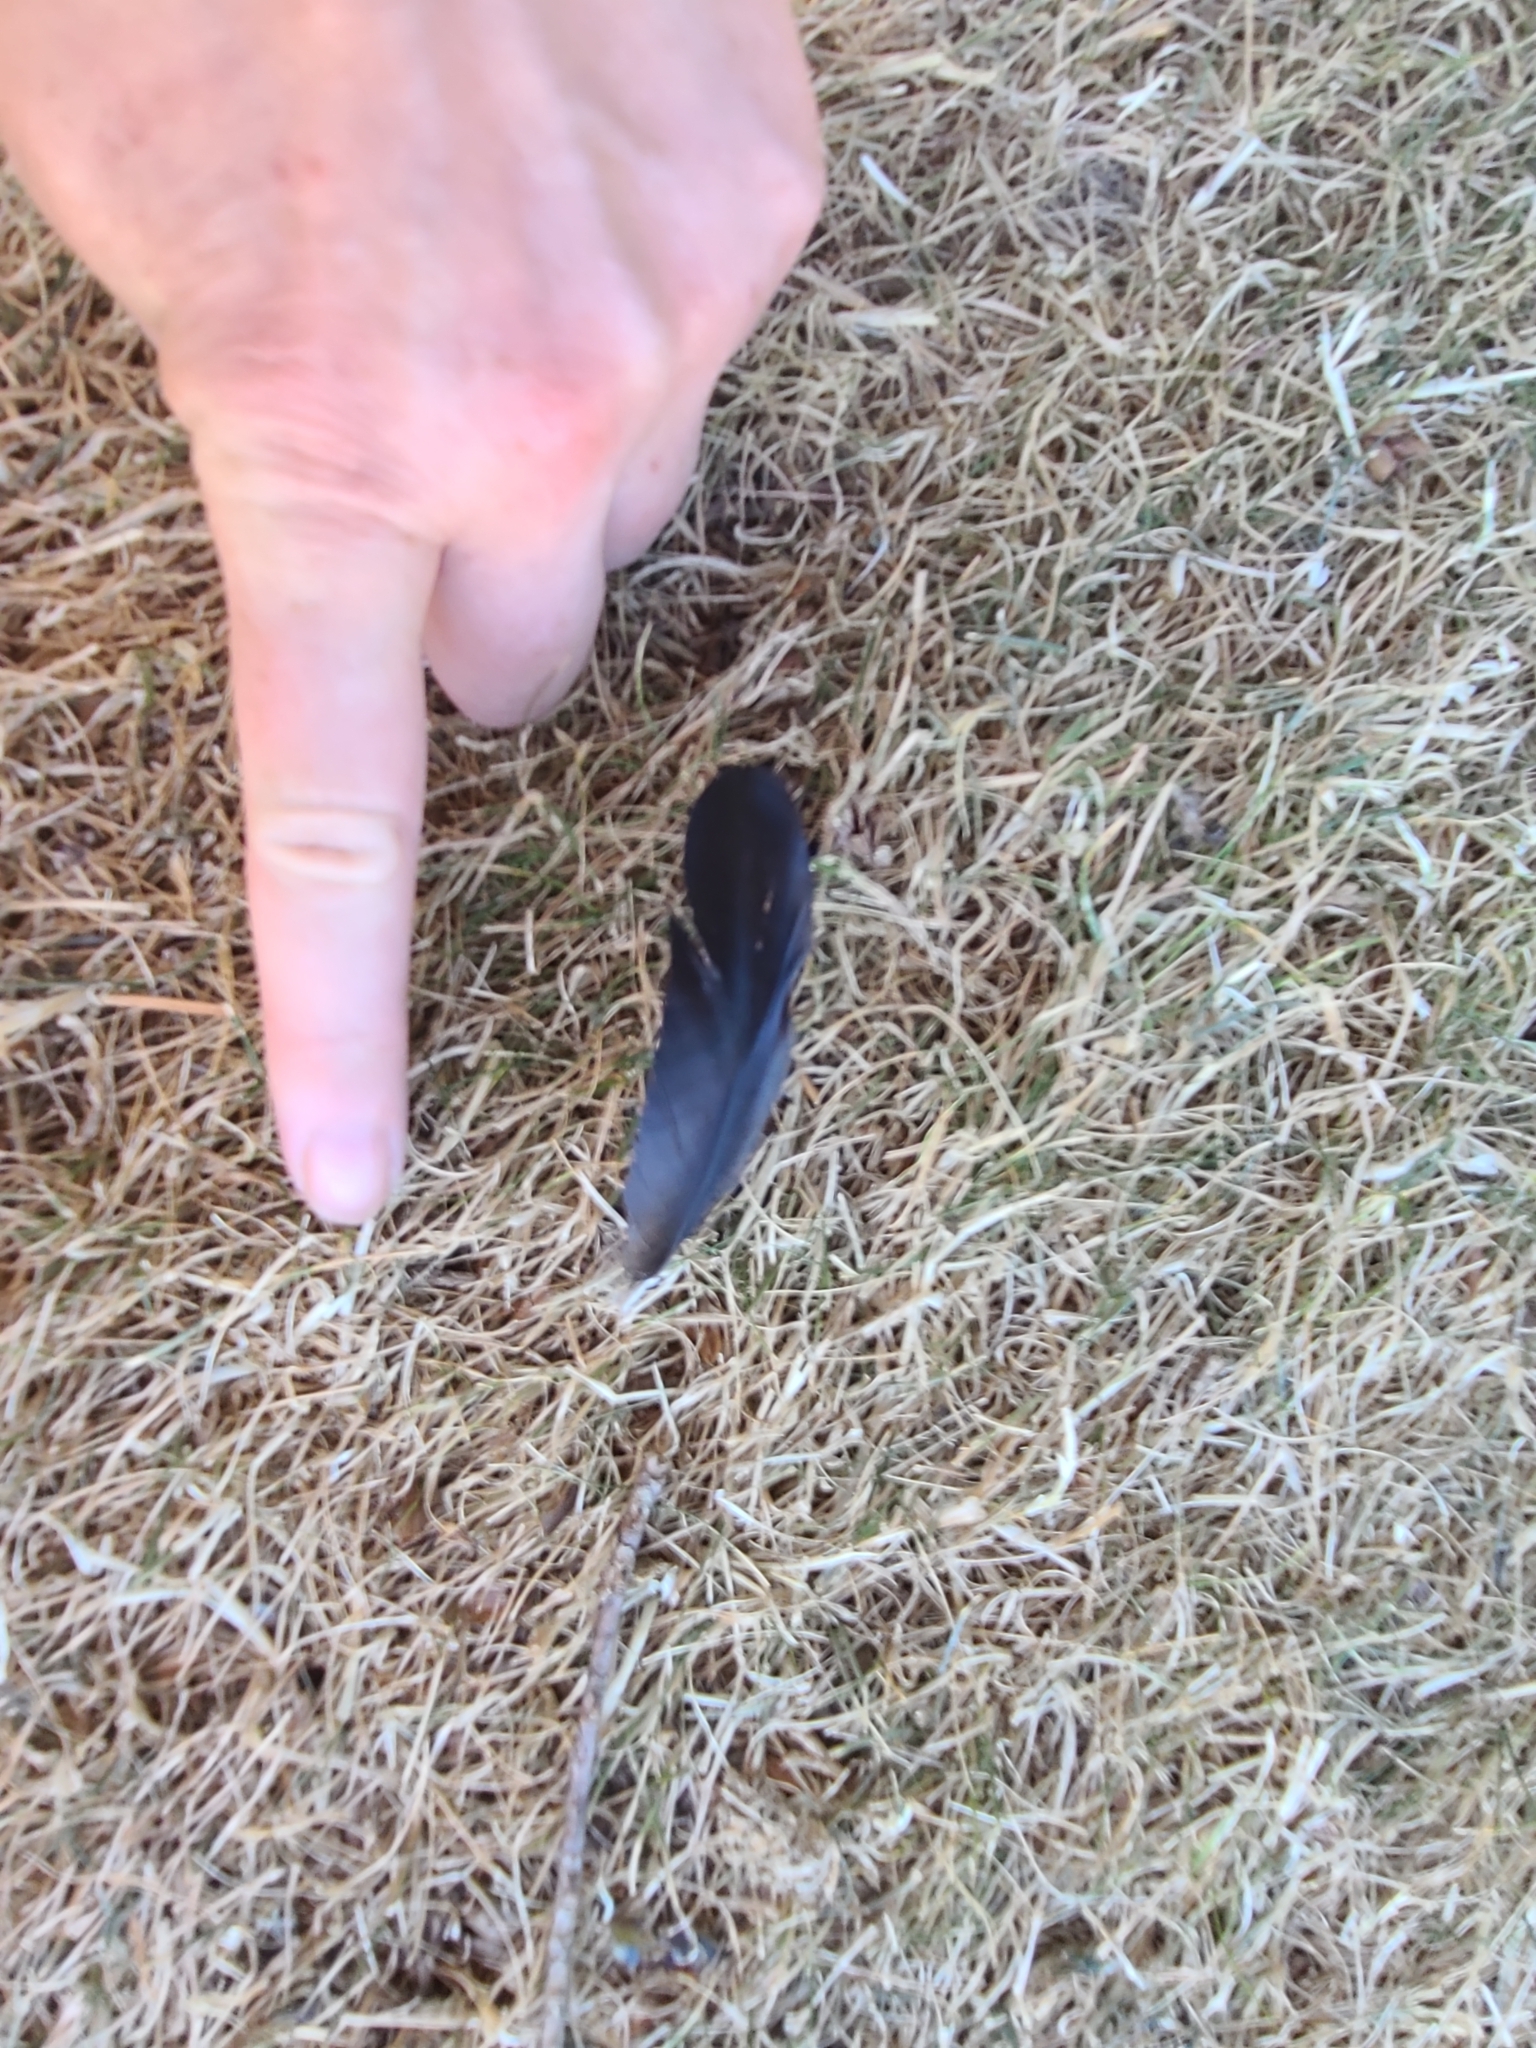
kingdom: Animalia
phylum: Chordata
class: Aves
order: Passeriformes
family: Corvidae
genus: Corvus
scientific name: Corvus brachyrhynchos
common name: American crow
